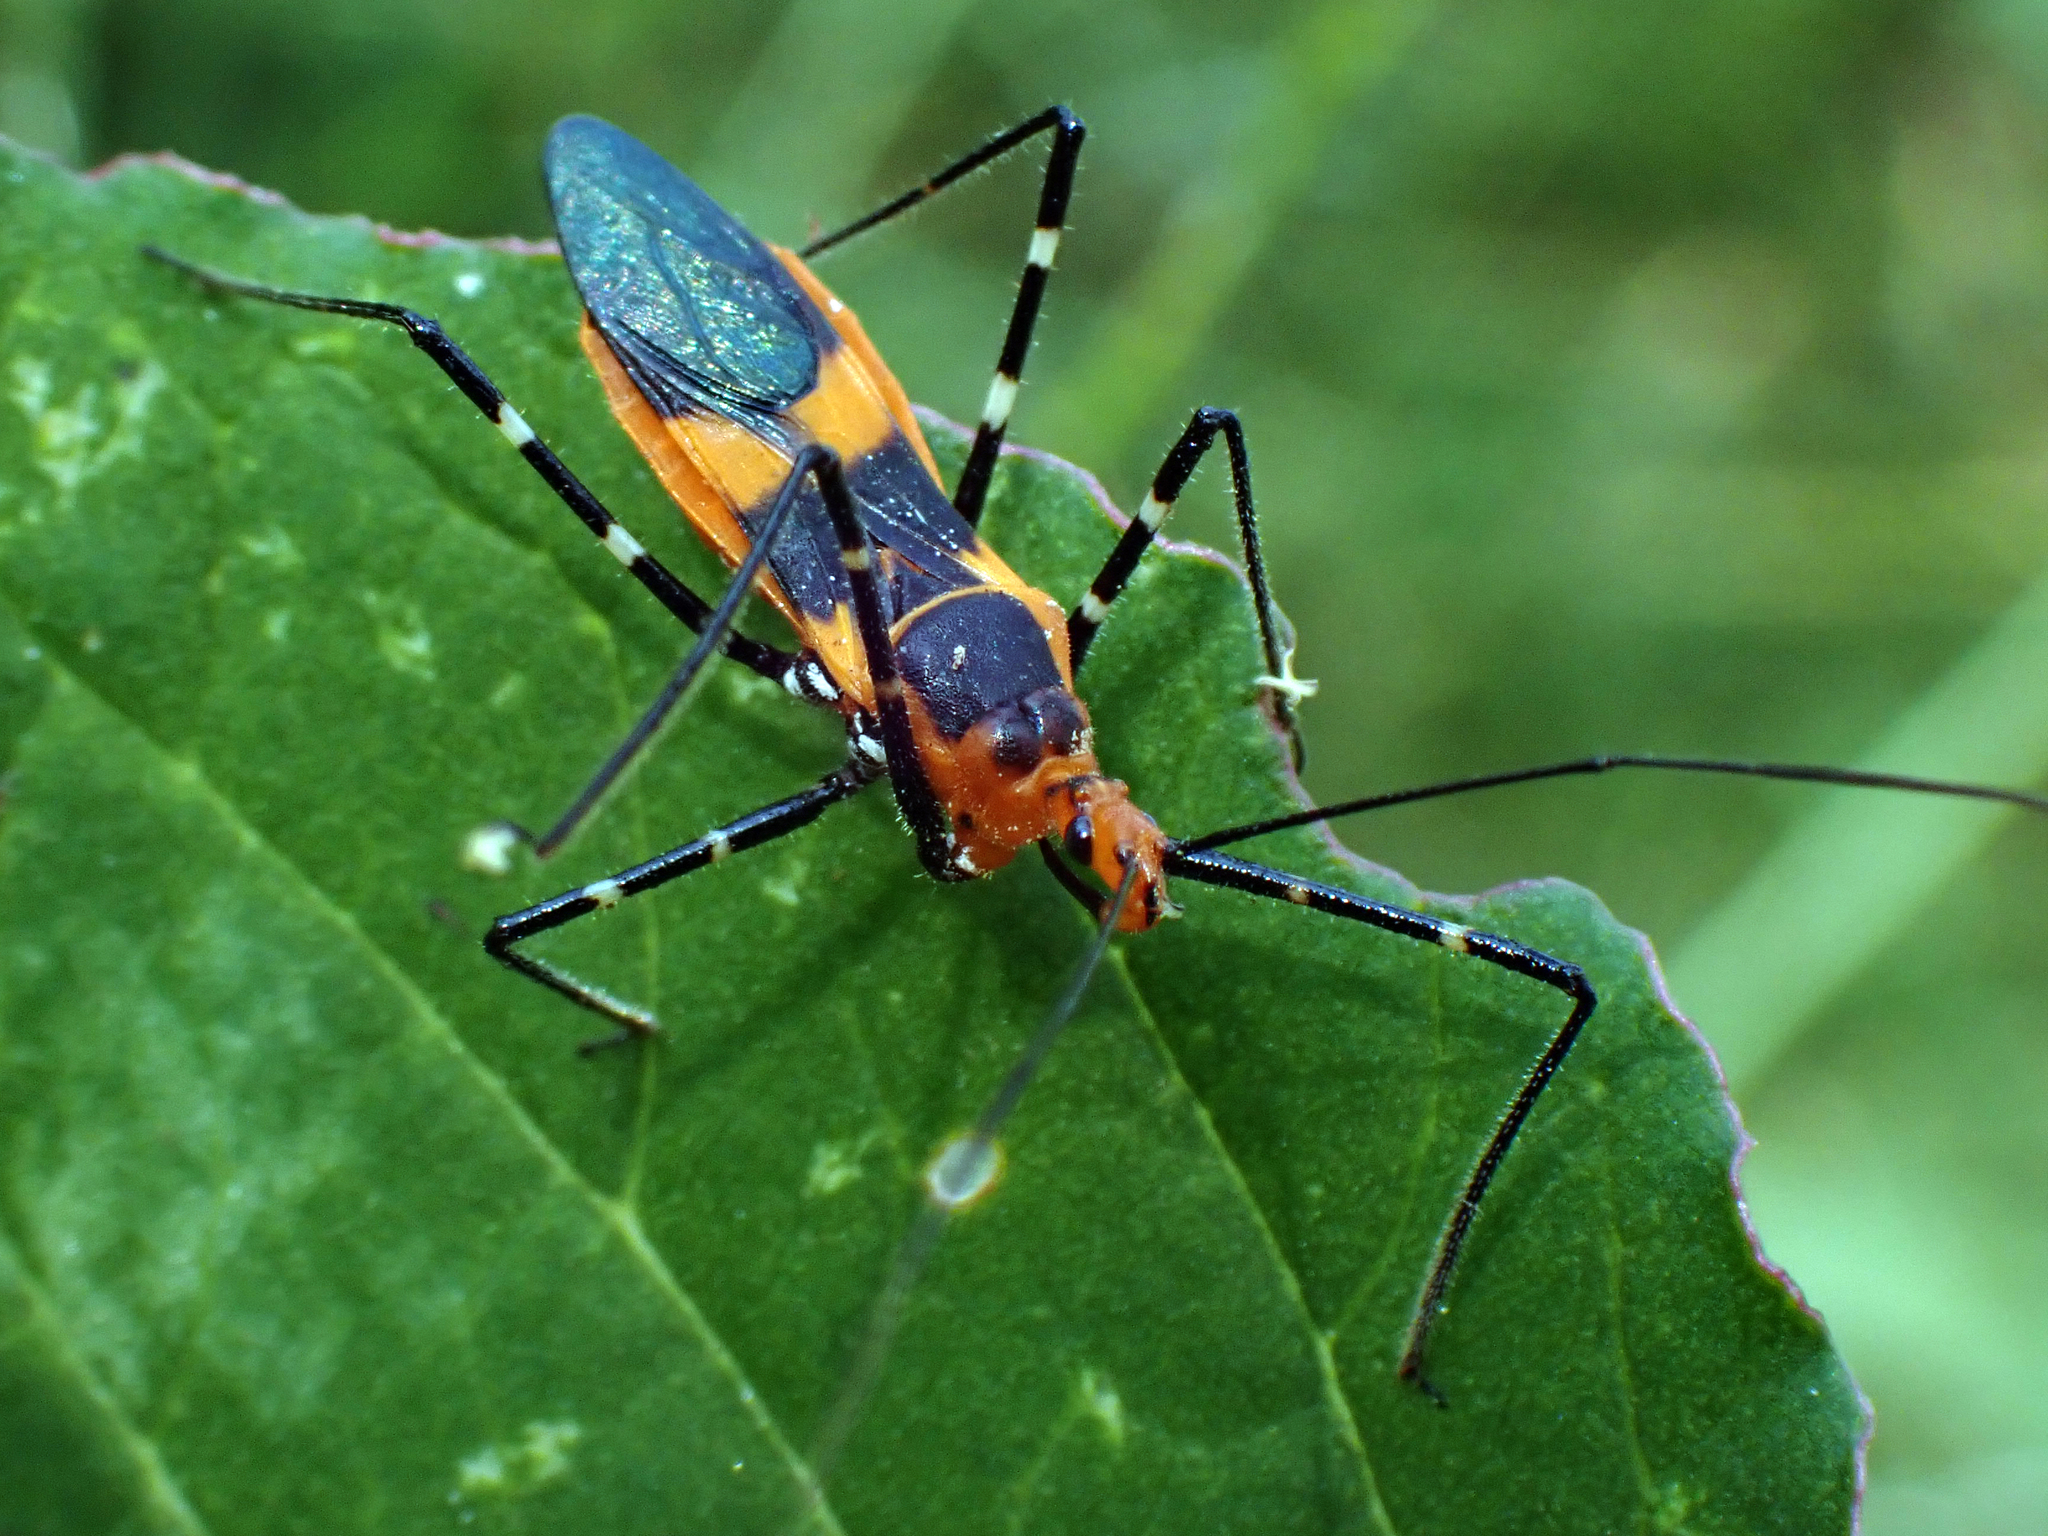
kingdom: Animalia
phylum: Arthropoda
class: Insecta
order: Hemiptera
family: Reduviidae
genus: Zelus
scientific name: Zelus longipes
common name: Milkweed assassin bug
